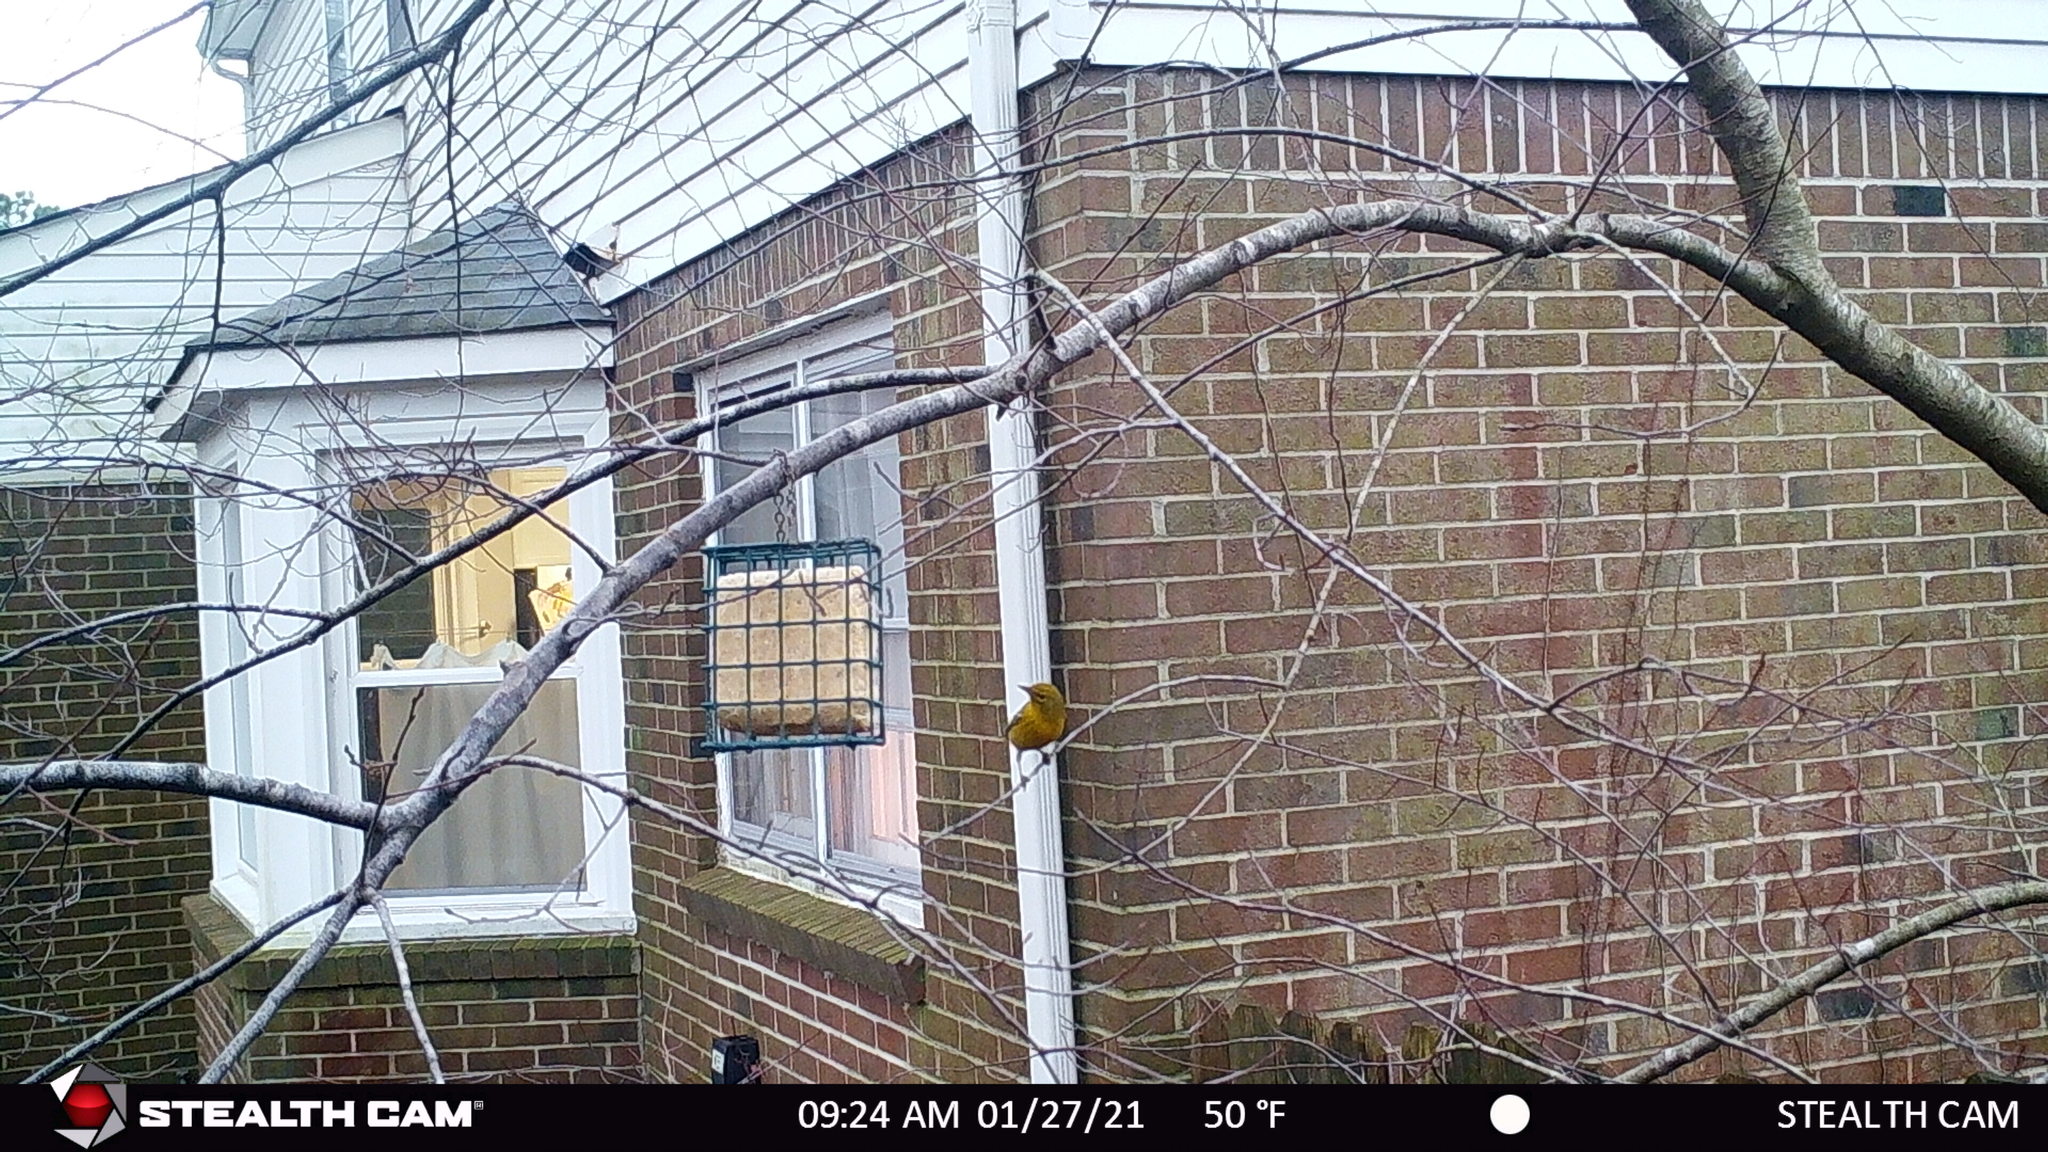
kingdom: Animalia
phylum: Chordata
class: Aves
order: Passeriformes
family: Parulidae
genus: Setophaga
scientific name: Setophaga pinus
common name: Pine warbler
